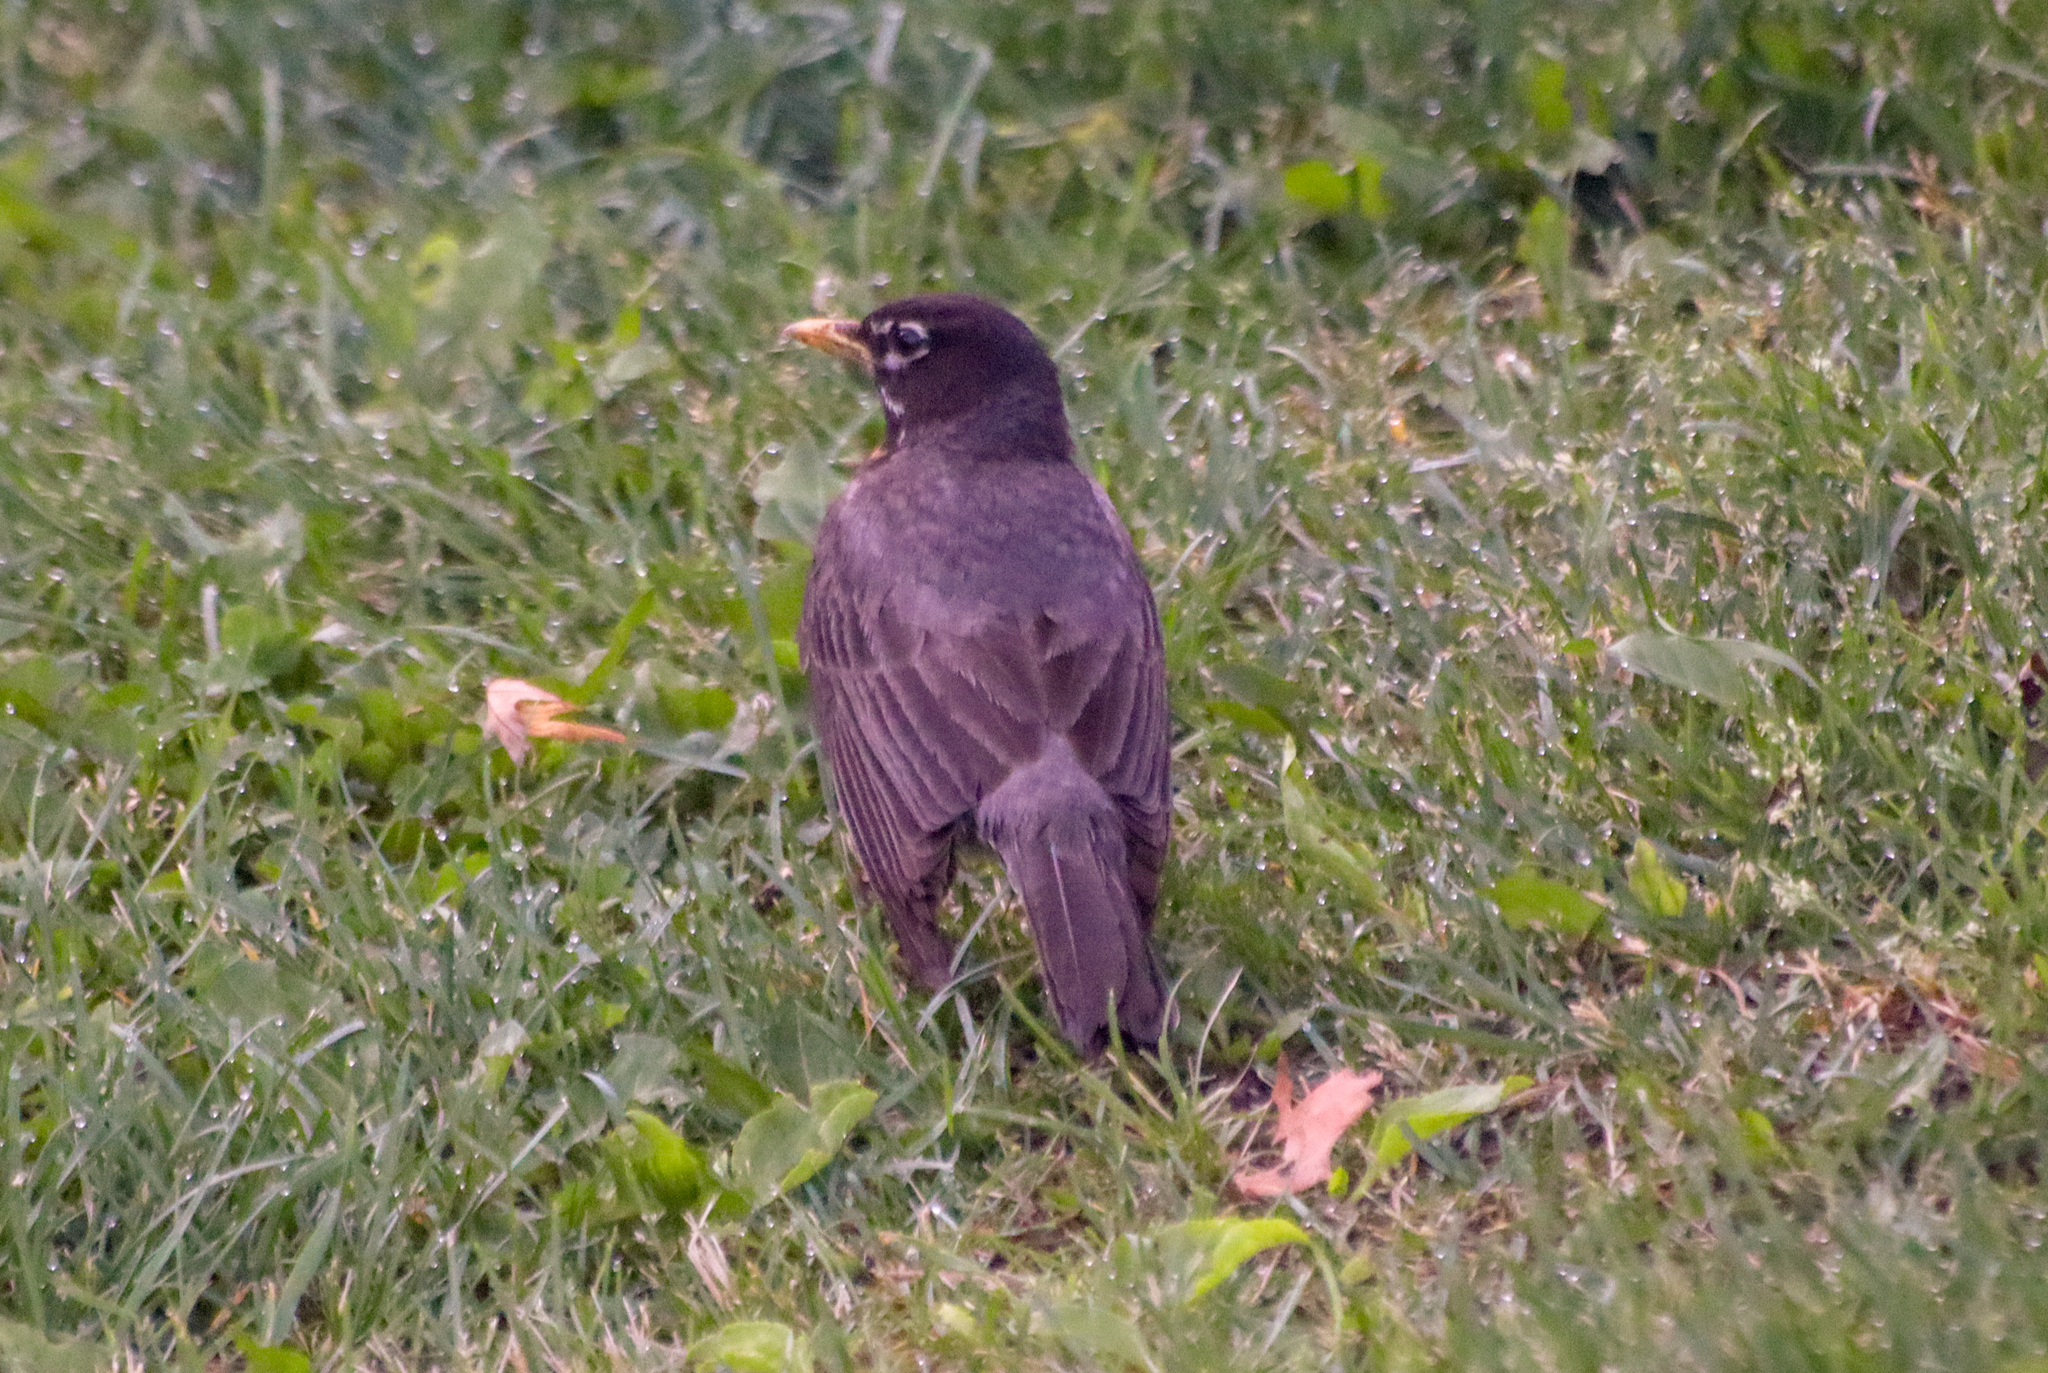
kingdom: Animalia
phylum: Chordata
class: Aves
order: Passeriformes
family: Turdidae
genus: Turdus
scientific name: Turdus migratorius
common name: American robin
